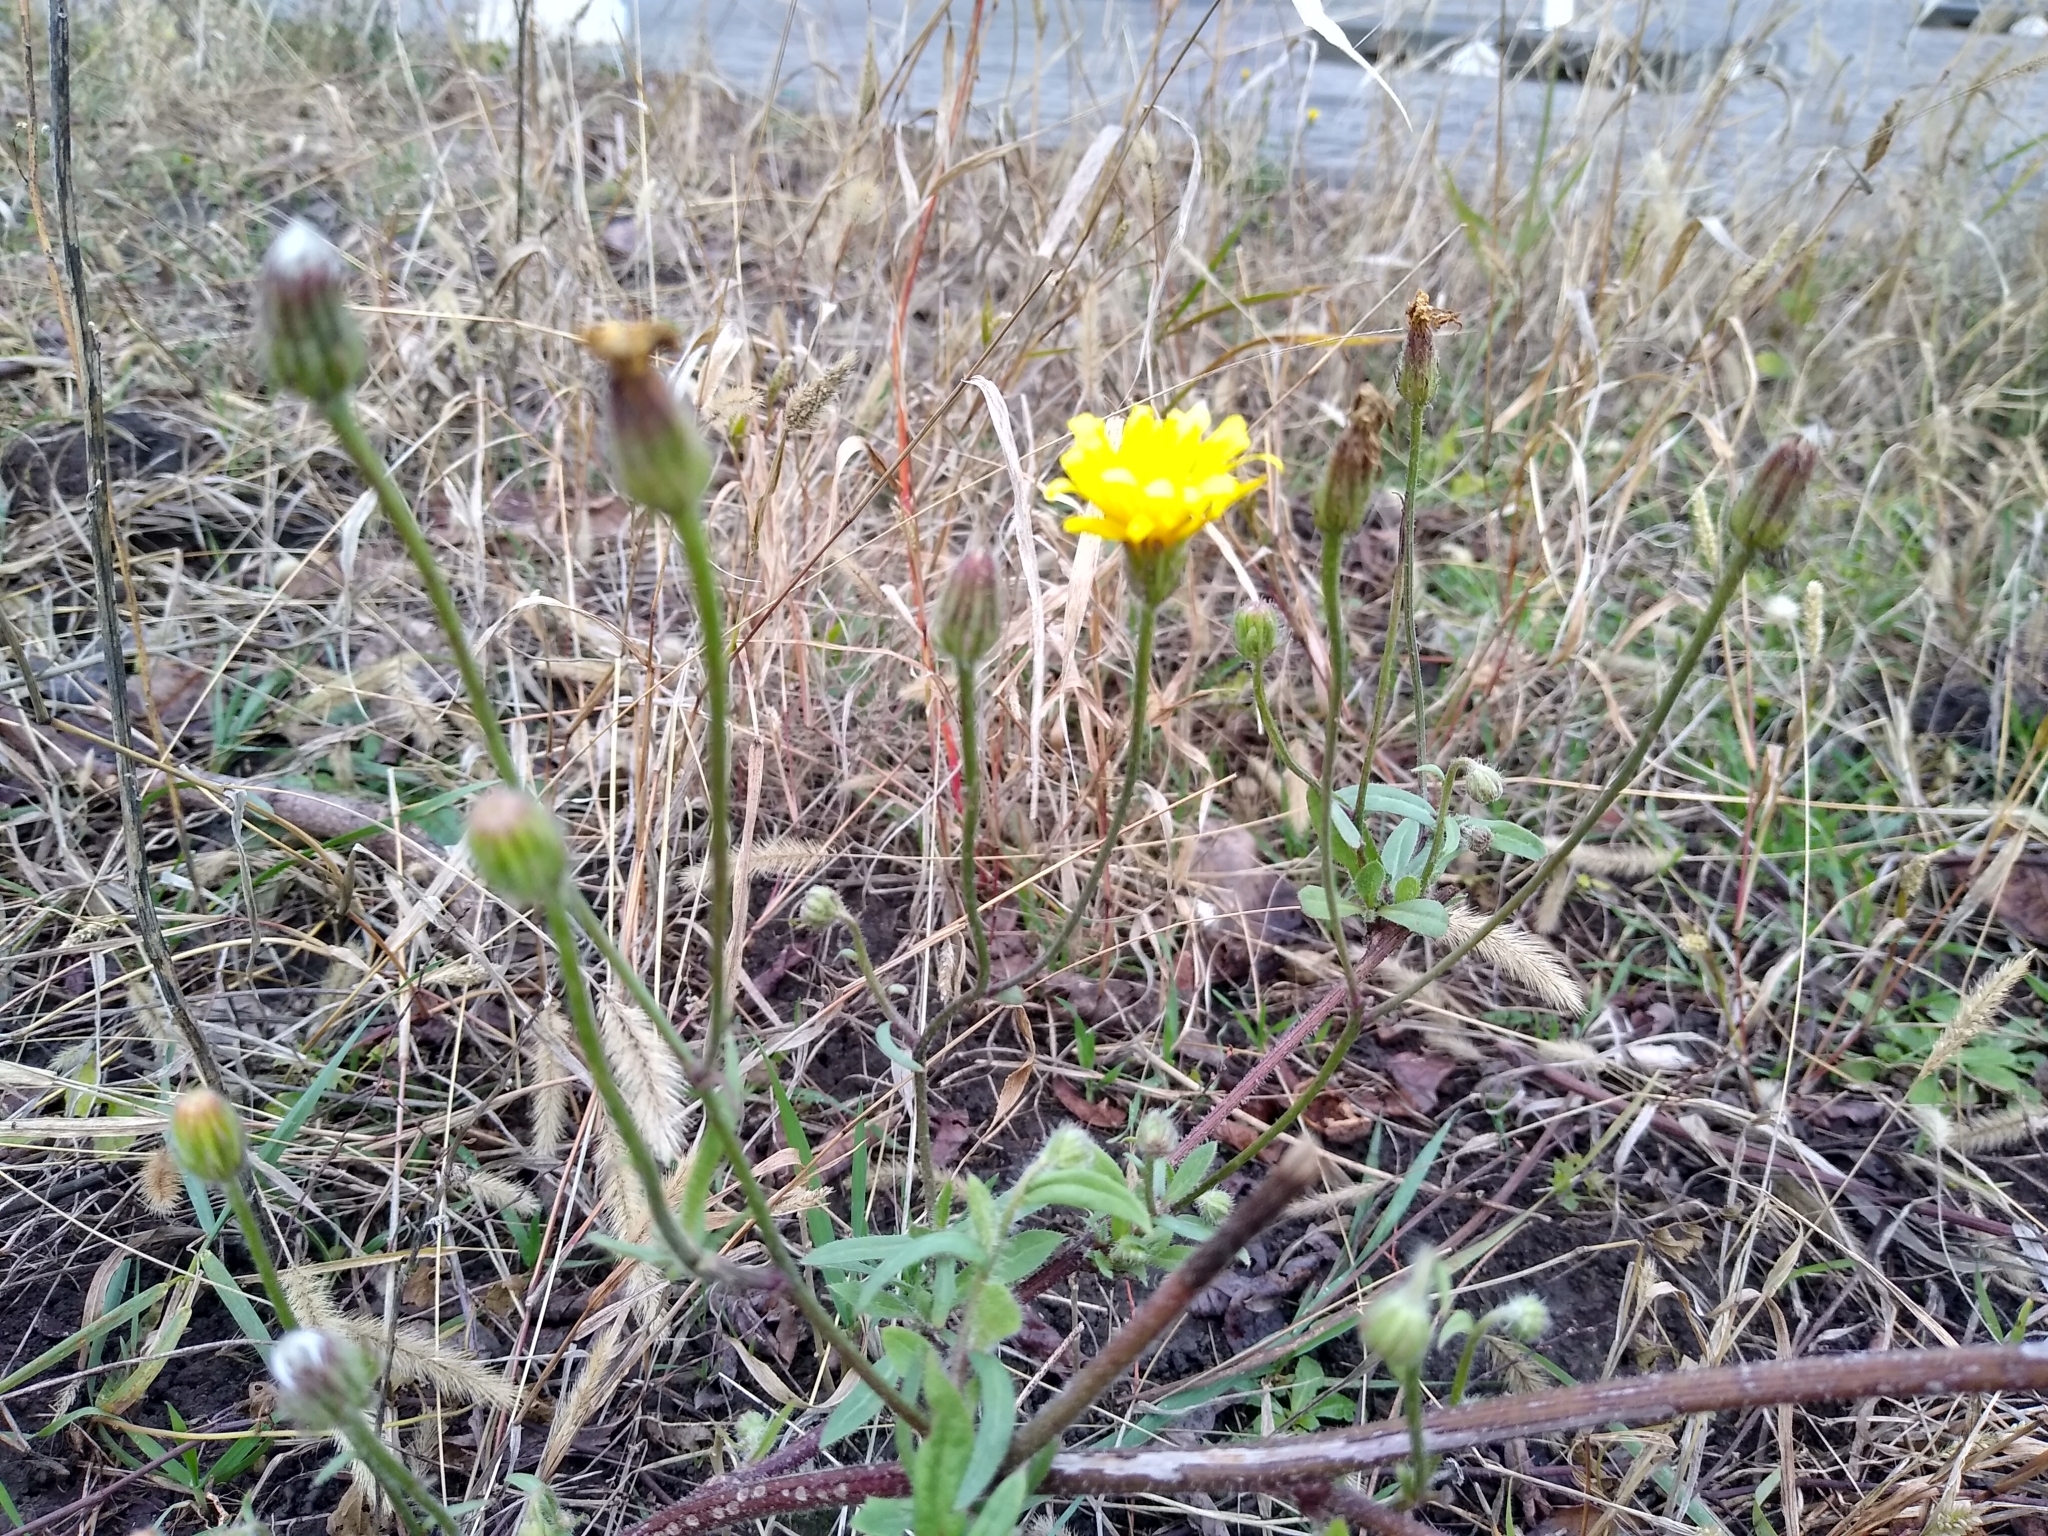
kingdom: Plantae
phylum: Tracheophyta
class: Magnoliopsida
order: Asterales
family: Asteraceae
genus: Crepis
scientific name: Crepis foetida
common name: Stinking hawk's-beard
